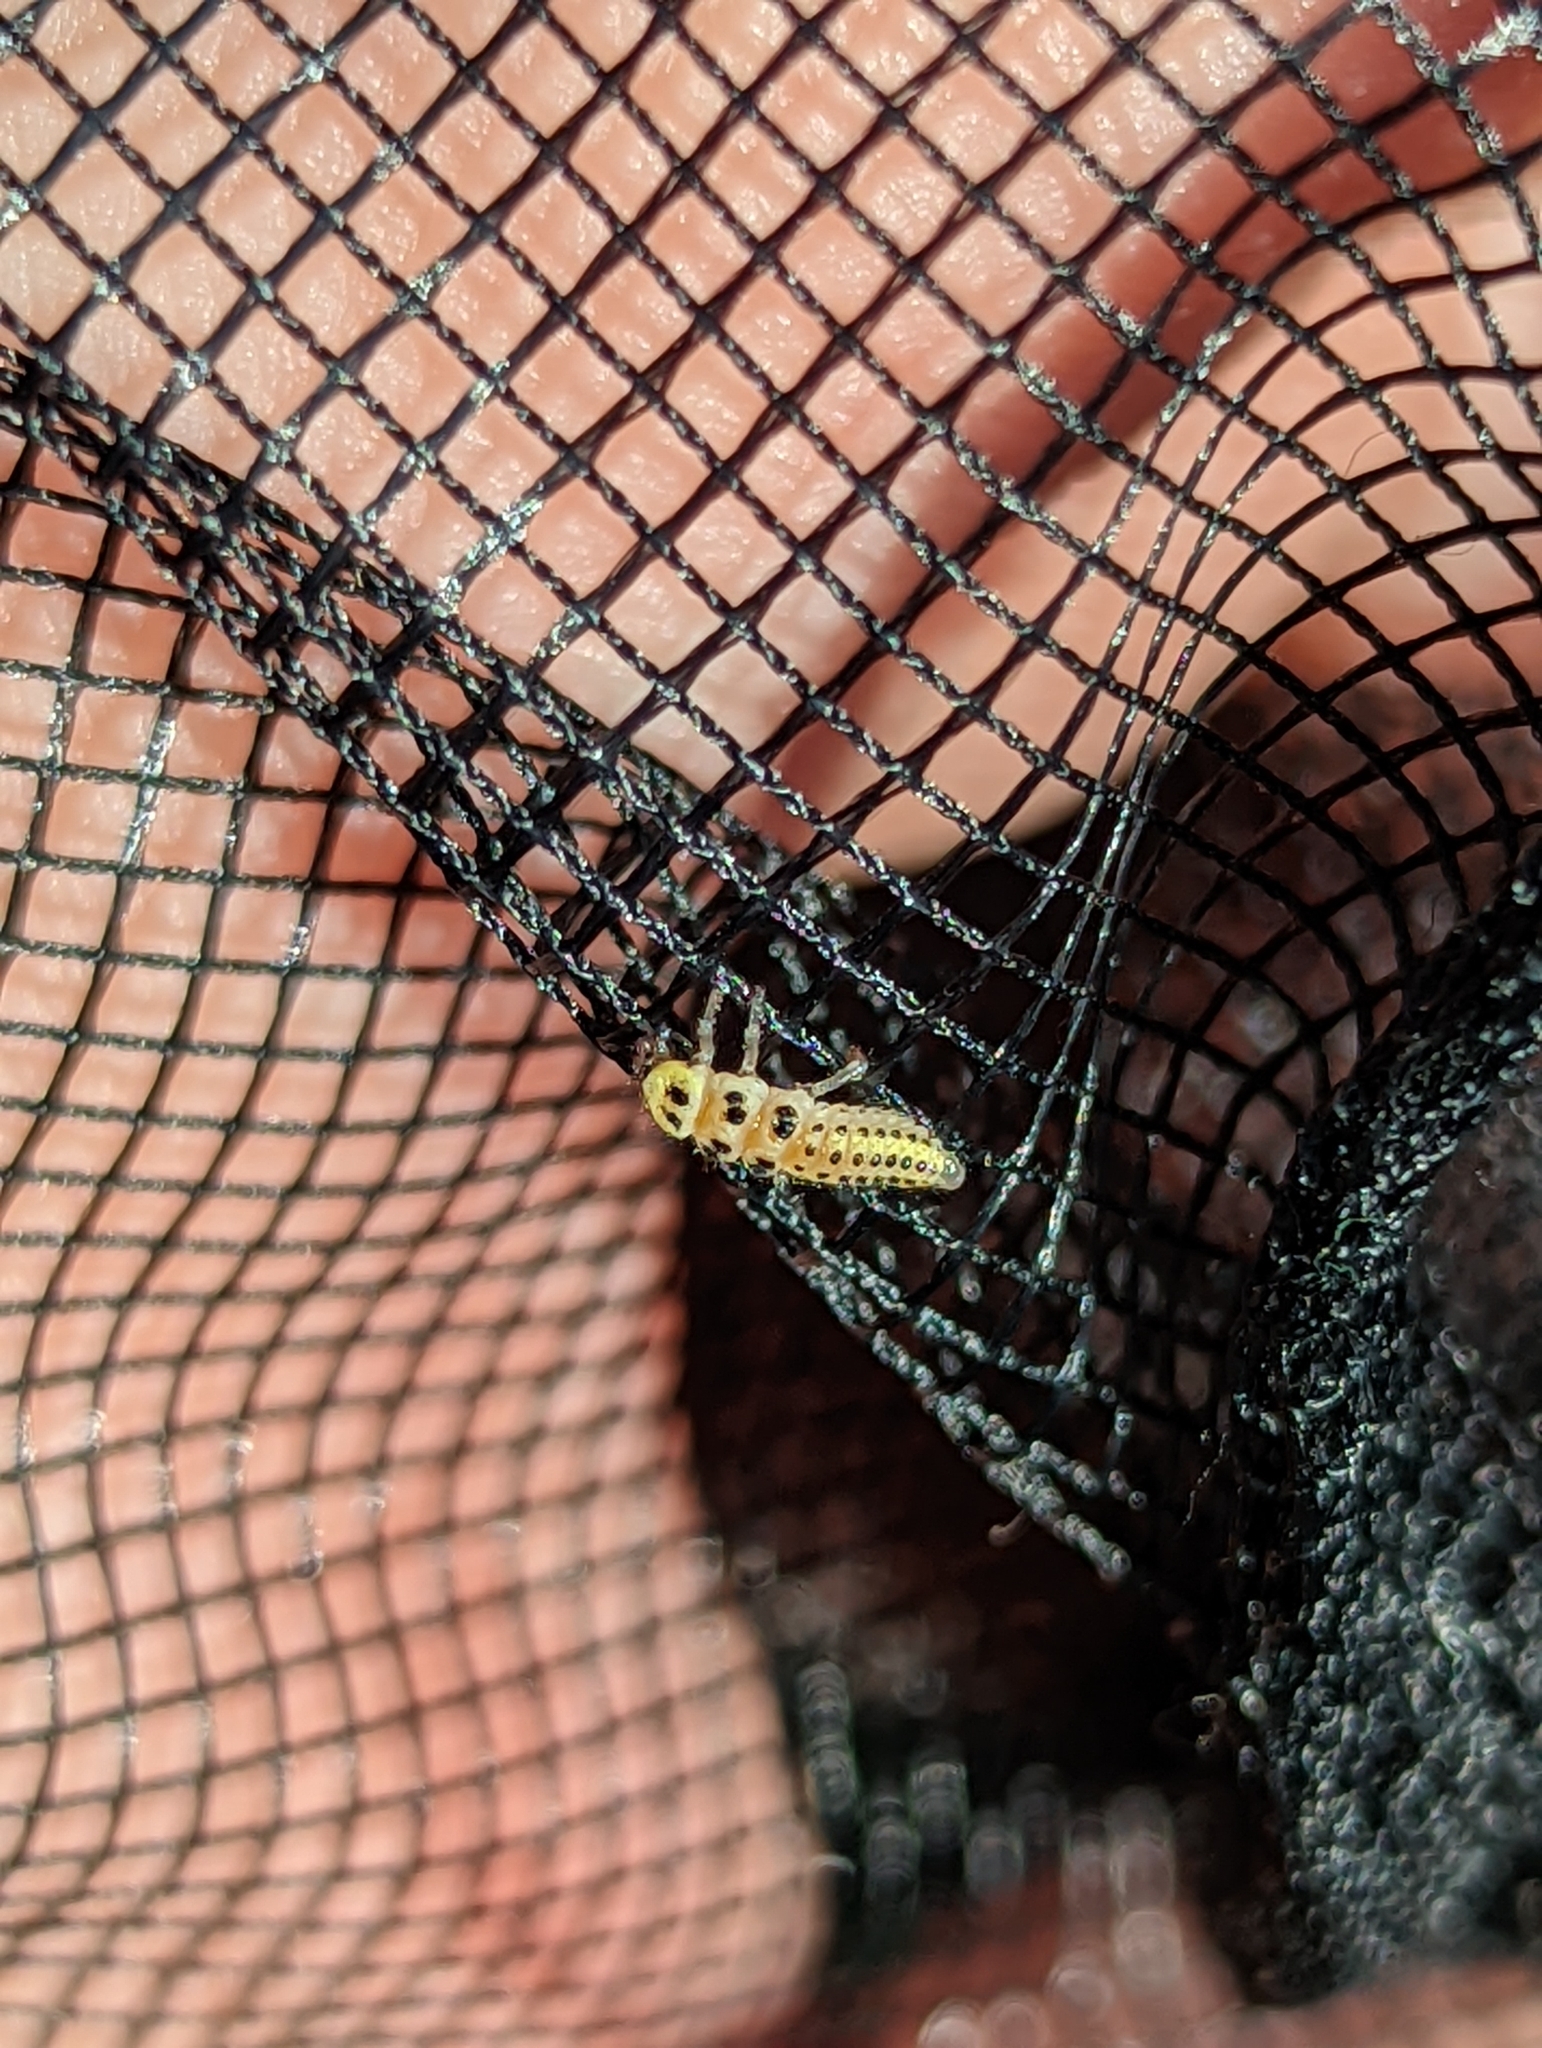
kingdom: Animalia
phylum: Arthropoda
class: Insecta
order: Coleoptera
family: Coccinellidae
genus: Vibidia
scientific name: Vibidia duodecimguttata
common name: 12-spot ladybird
